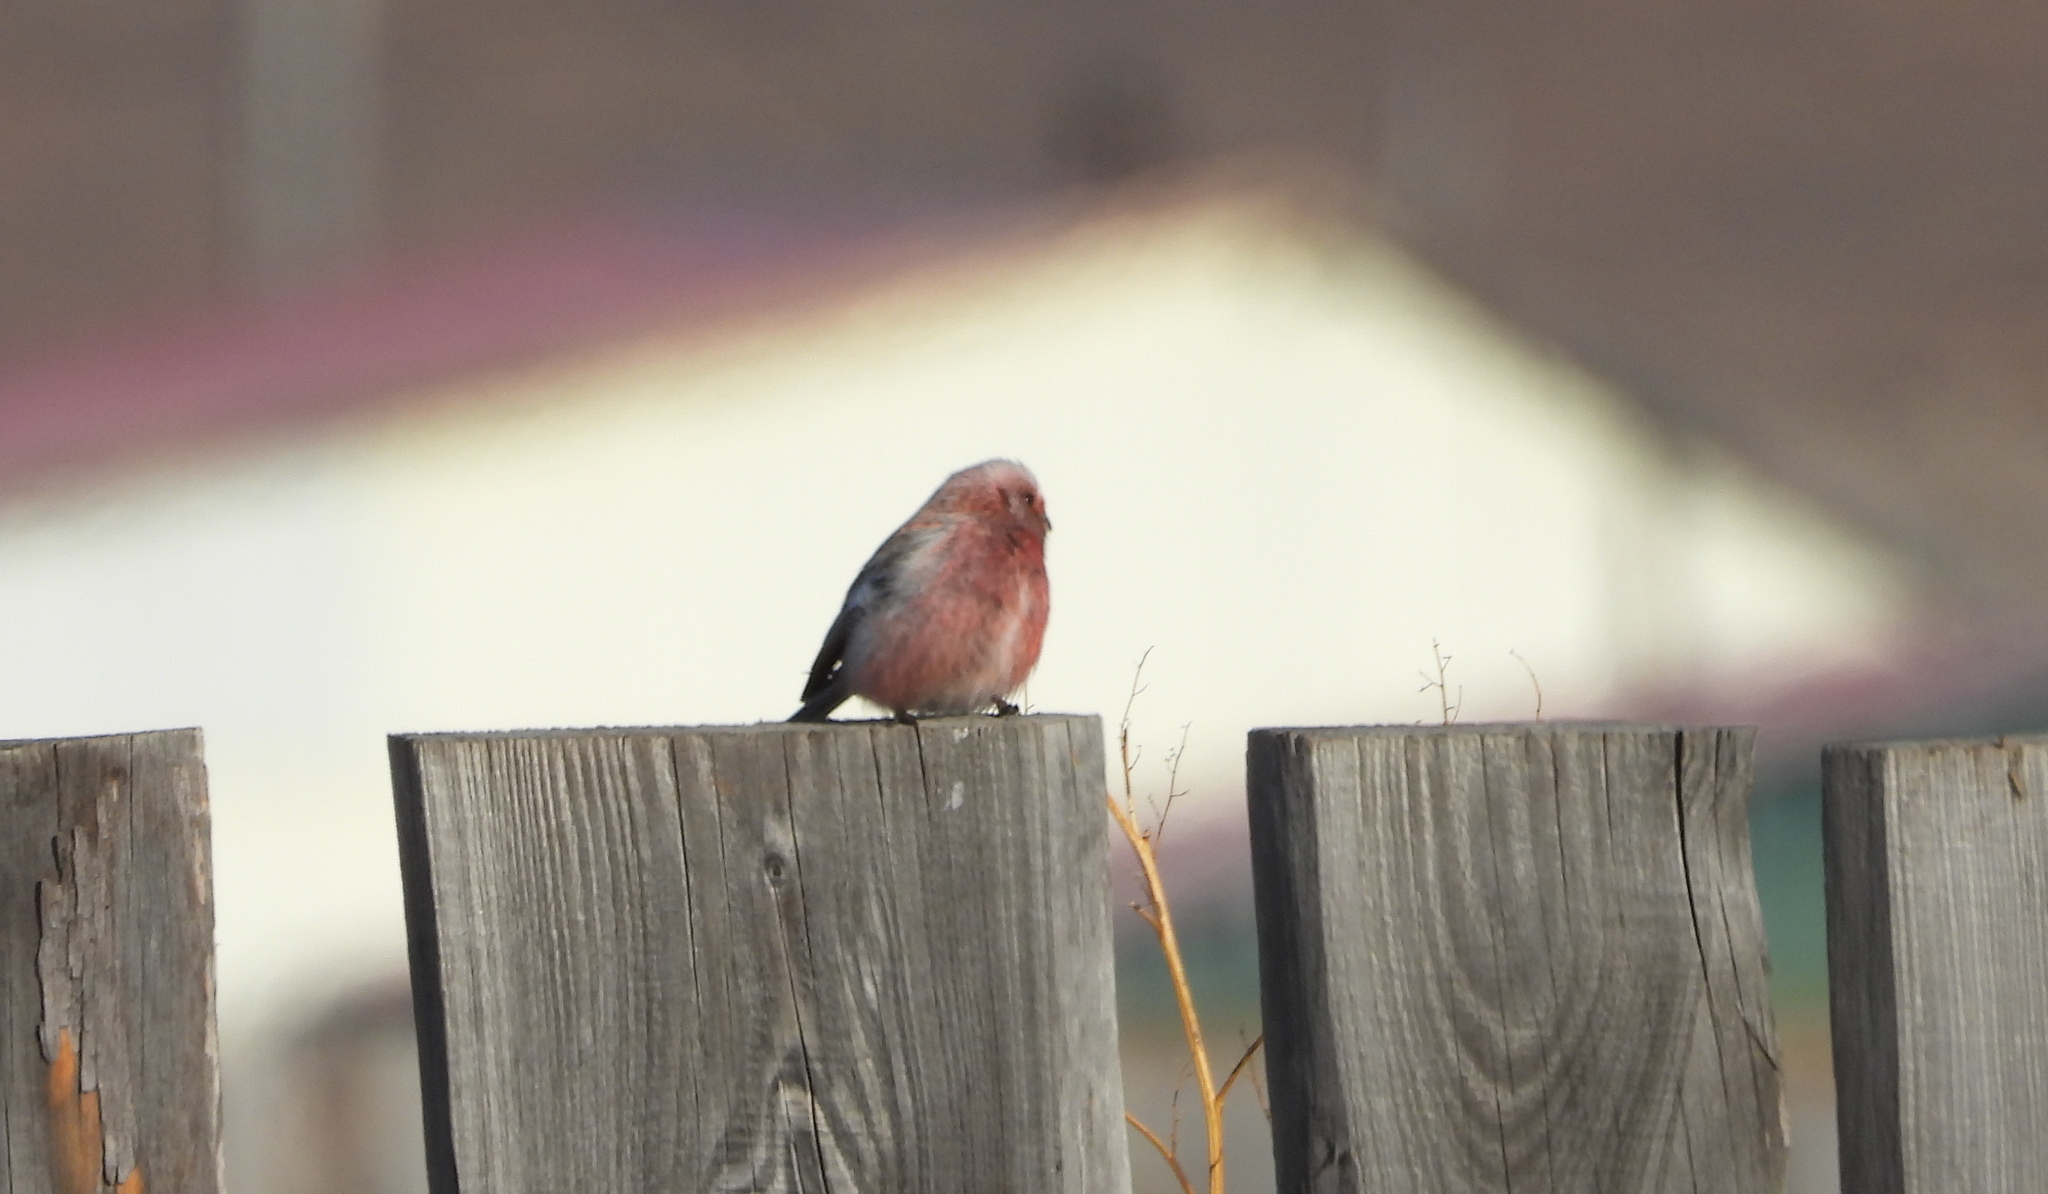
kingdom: Animalia
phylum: Chordata
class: Aves
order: Passeriformes
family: Fringillidae
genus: Carpodacus
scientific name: Carpodacus sibiricus
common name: Long-tailed rosefinch
